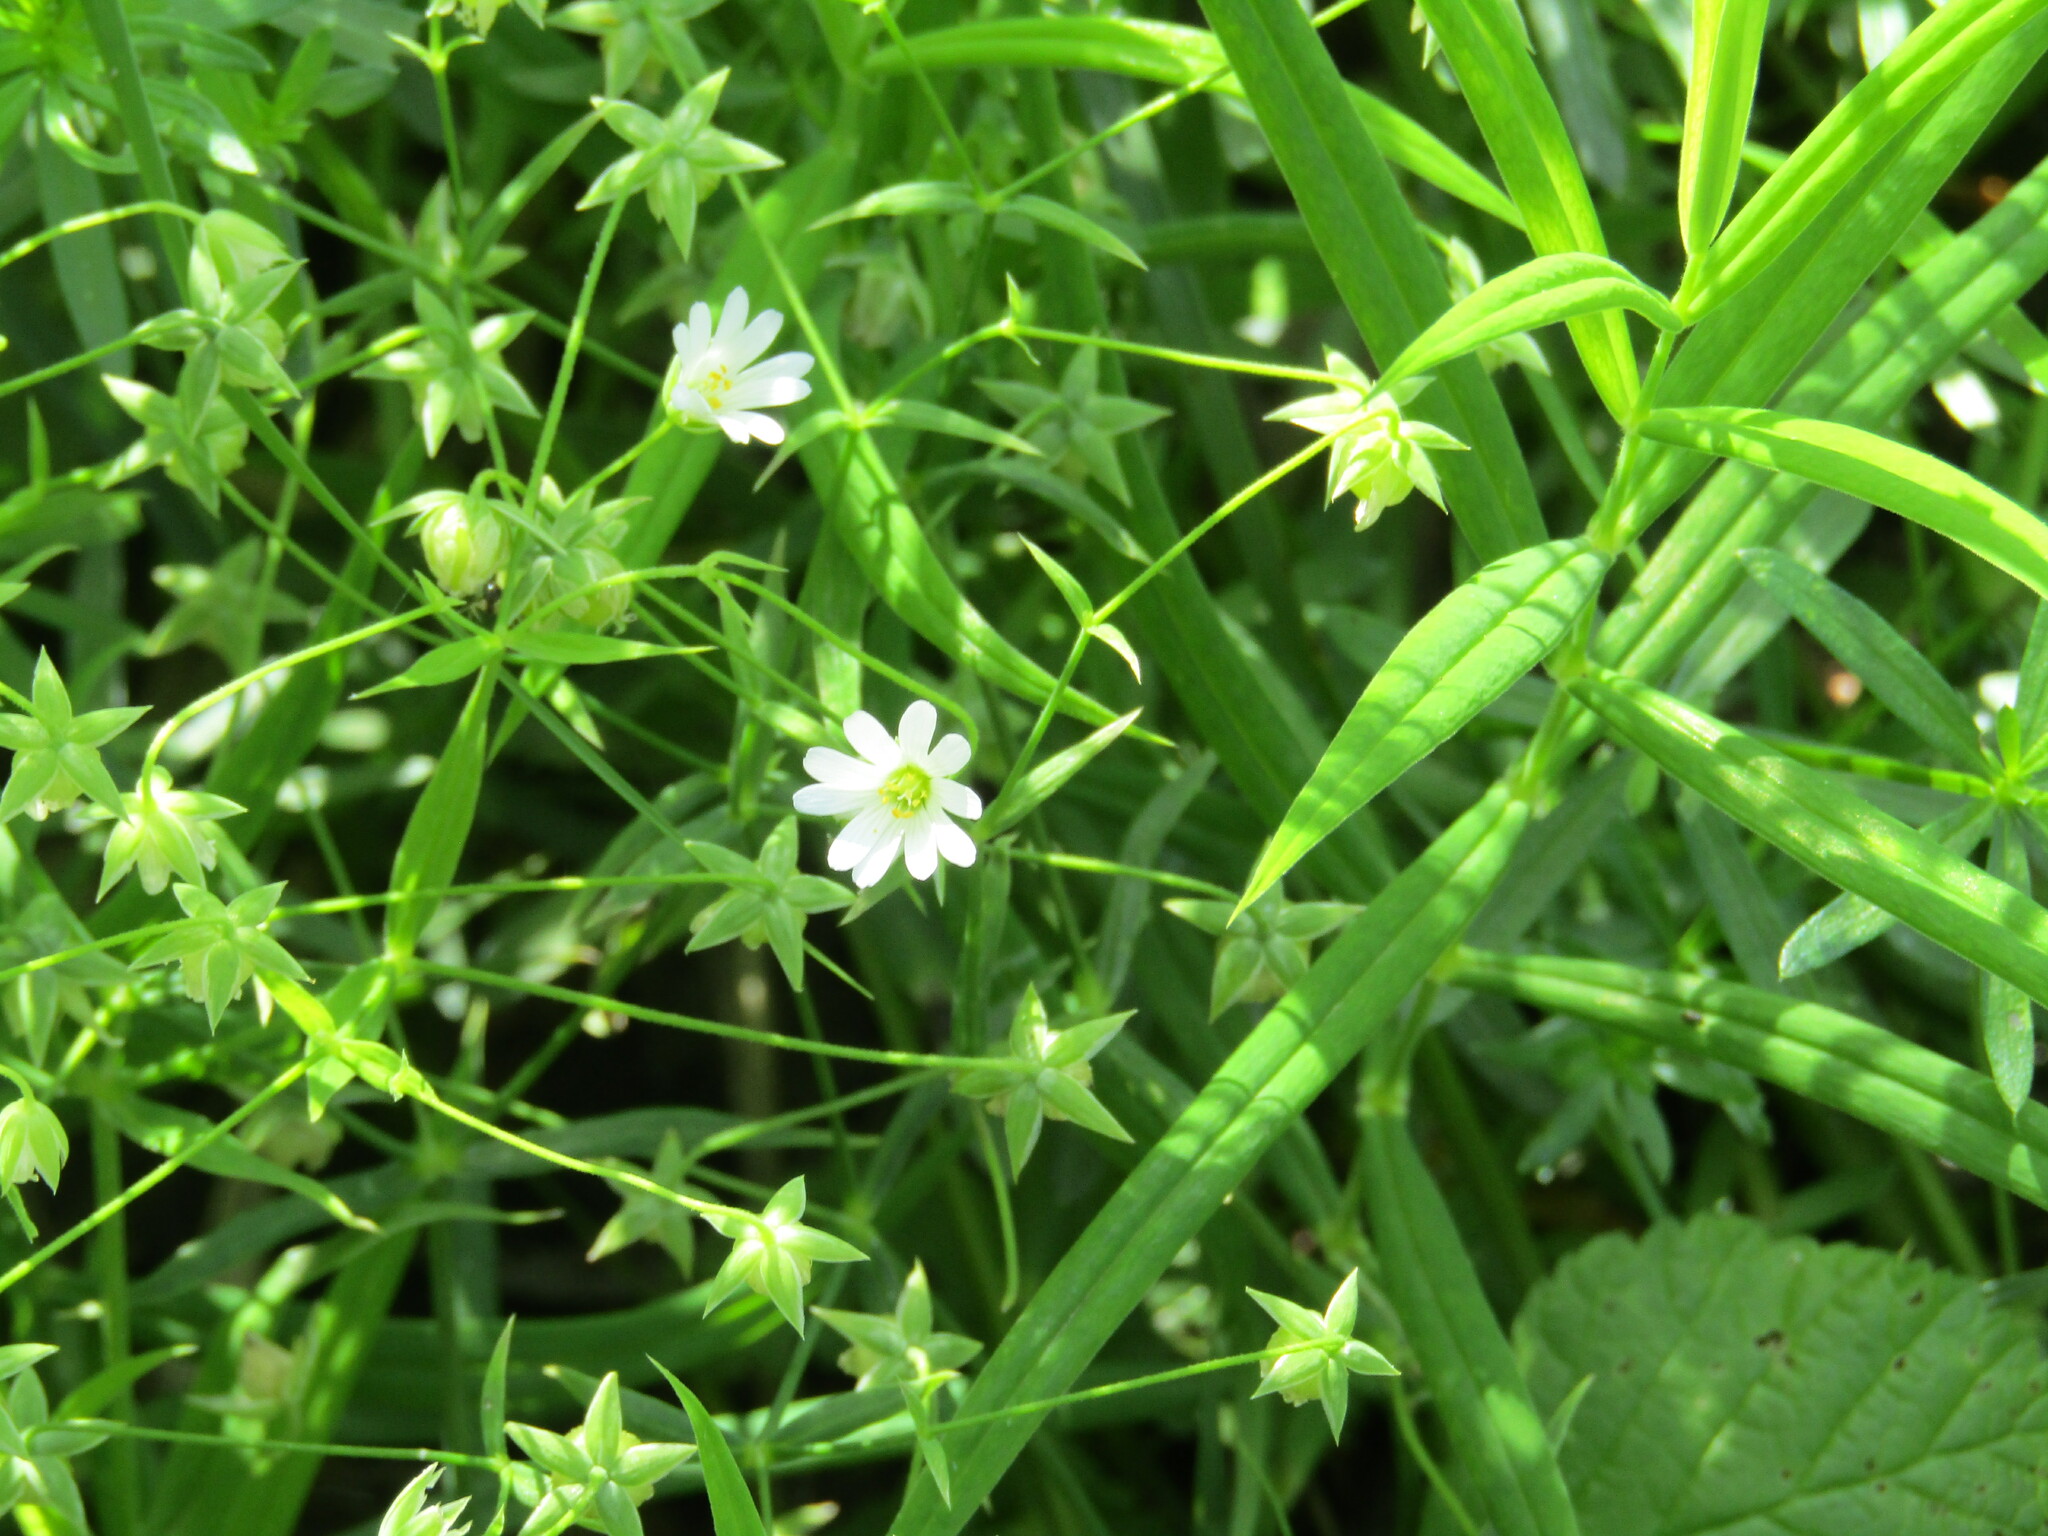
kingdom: Plantae
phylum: Tracheophyta
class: Magnoliopsida
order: Caryophyllales
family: Caryophyllaceae
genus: Rabelera
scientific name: Rabelera holostea
